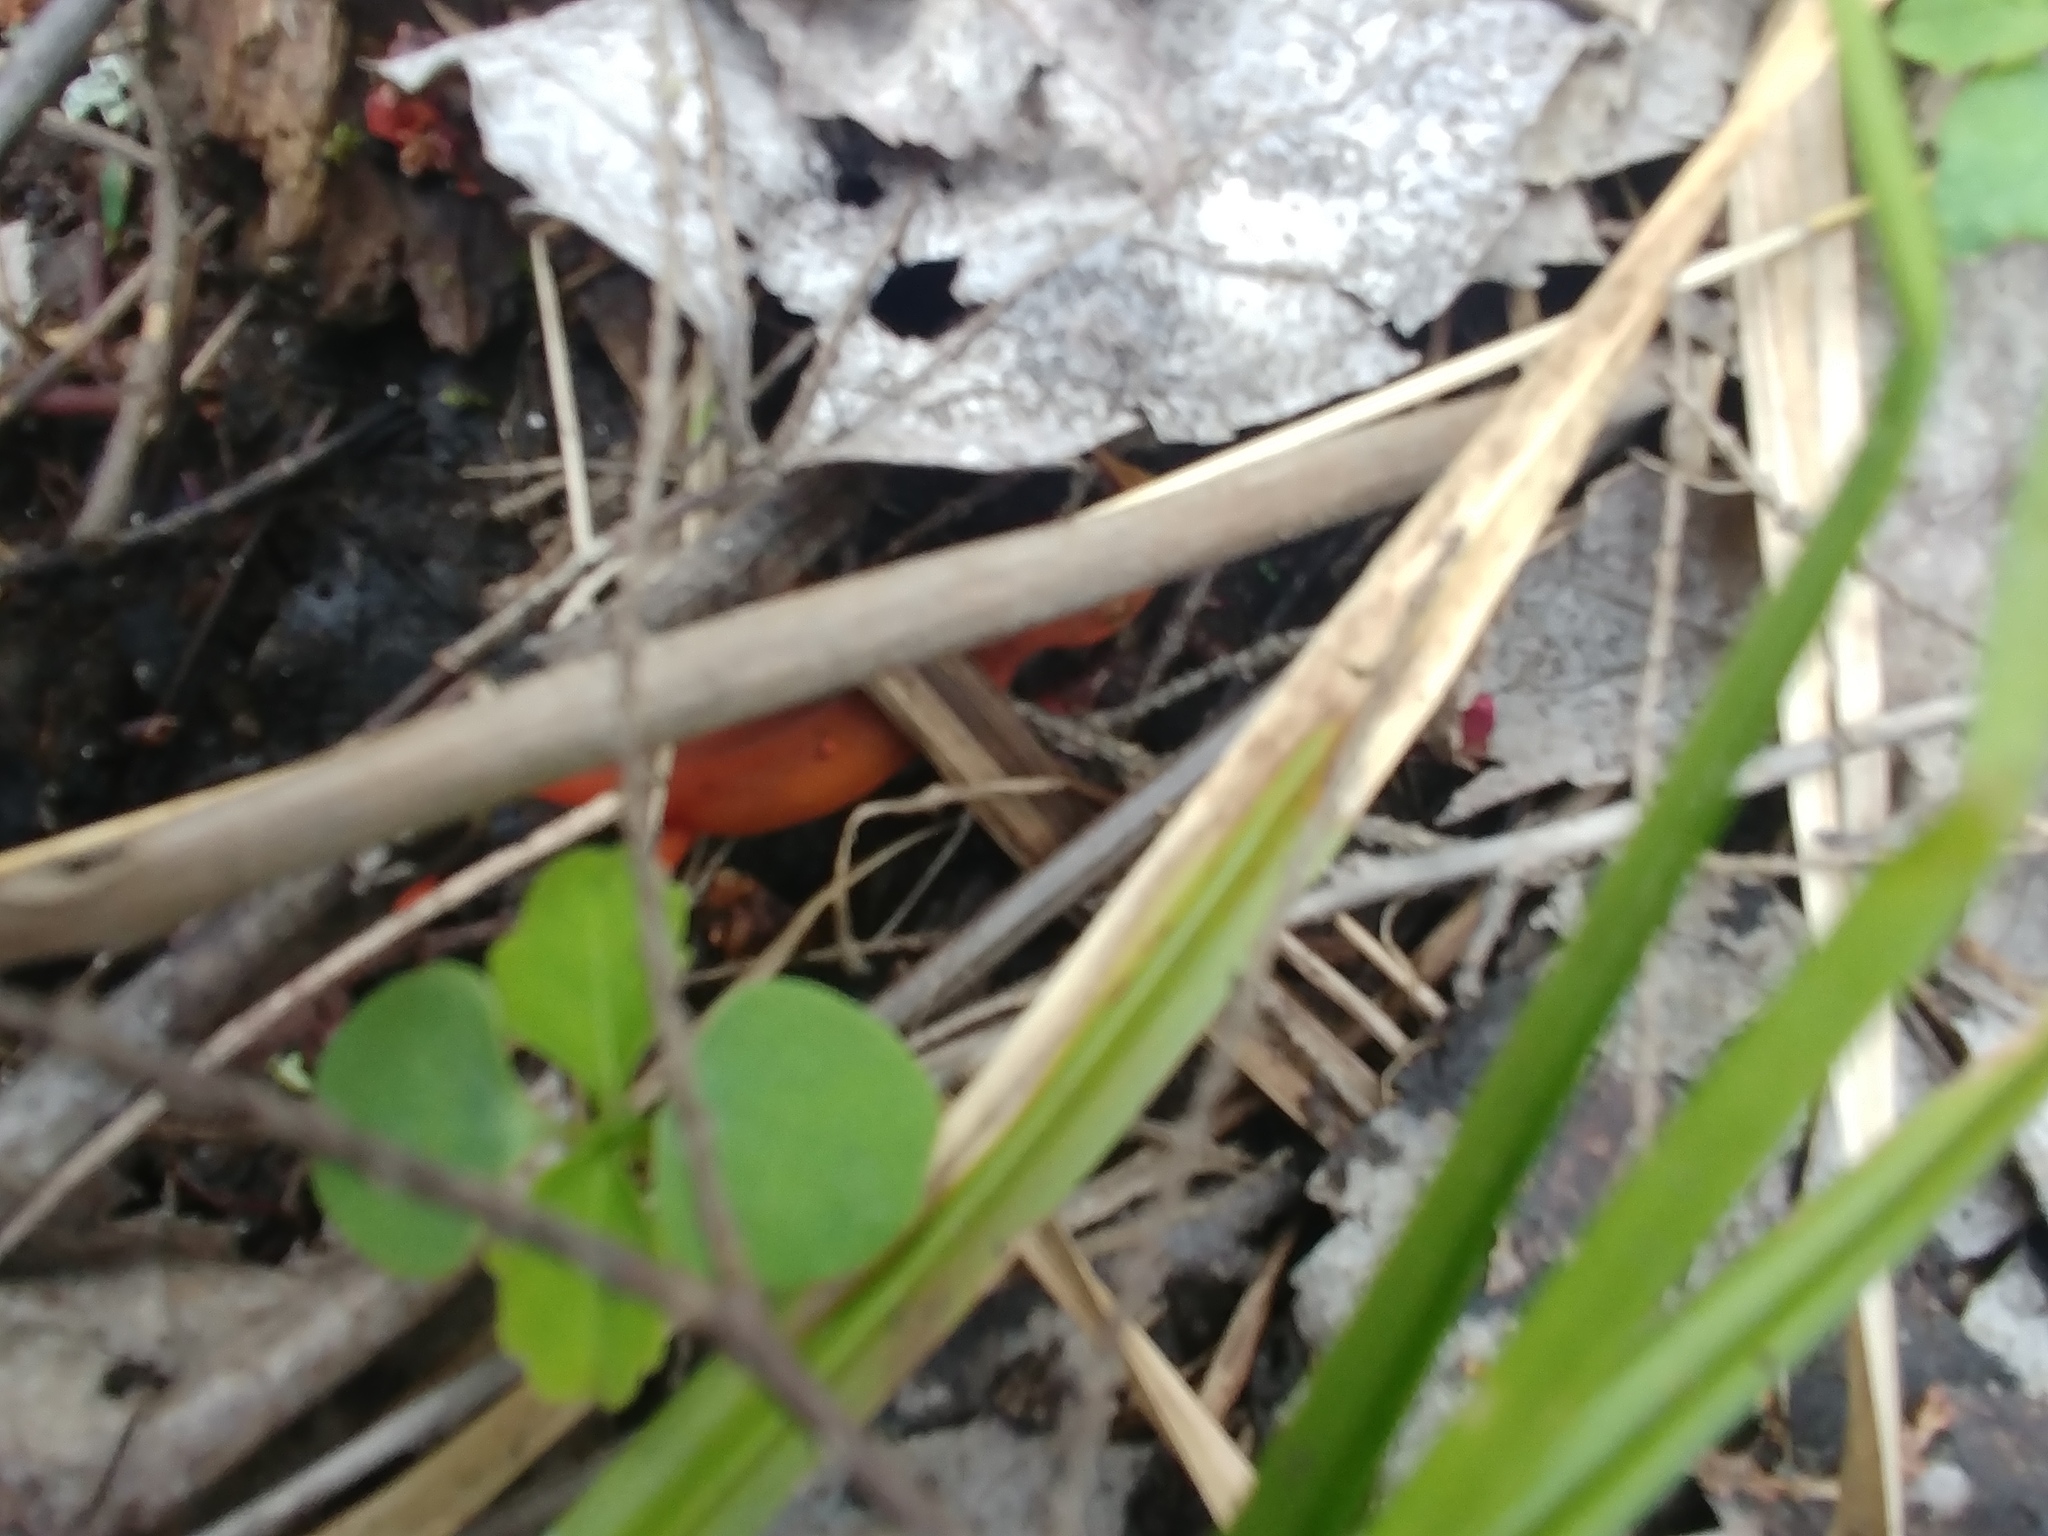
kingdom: Animalia
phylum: Chordata
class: Amphibia
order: Caudata
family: Salamandridae
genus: Notophthalmus
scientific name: Notophthalmus viridescens
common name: Eastern newt
